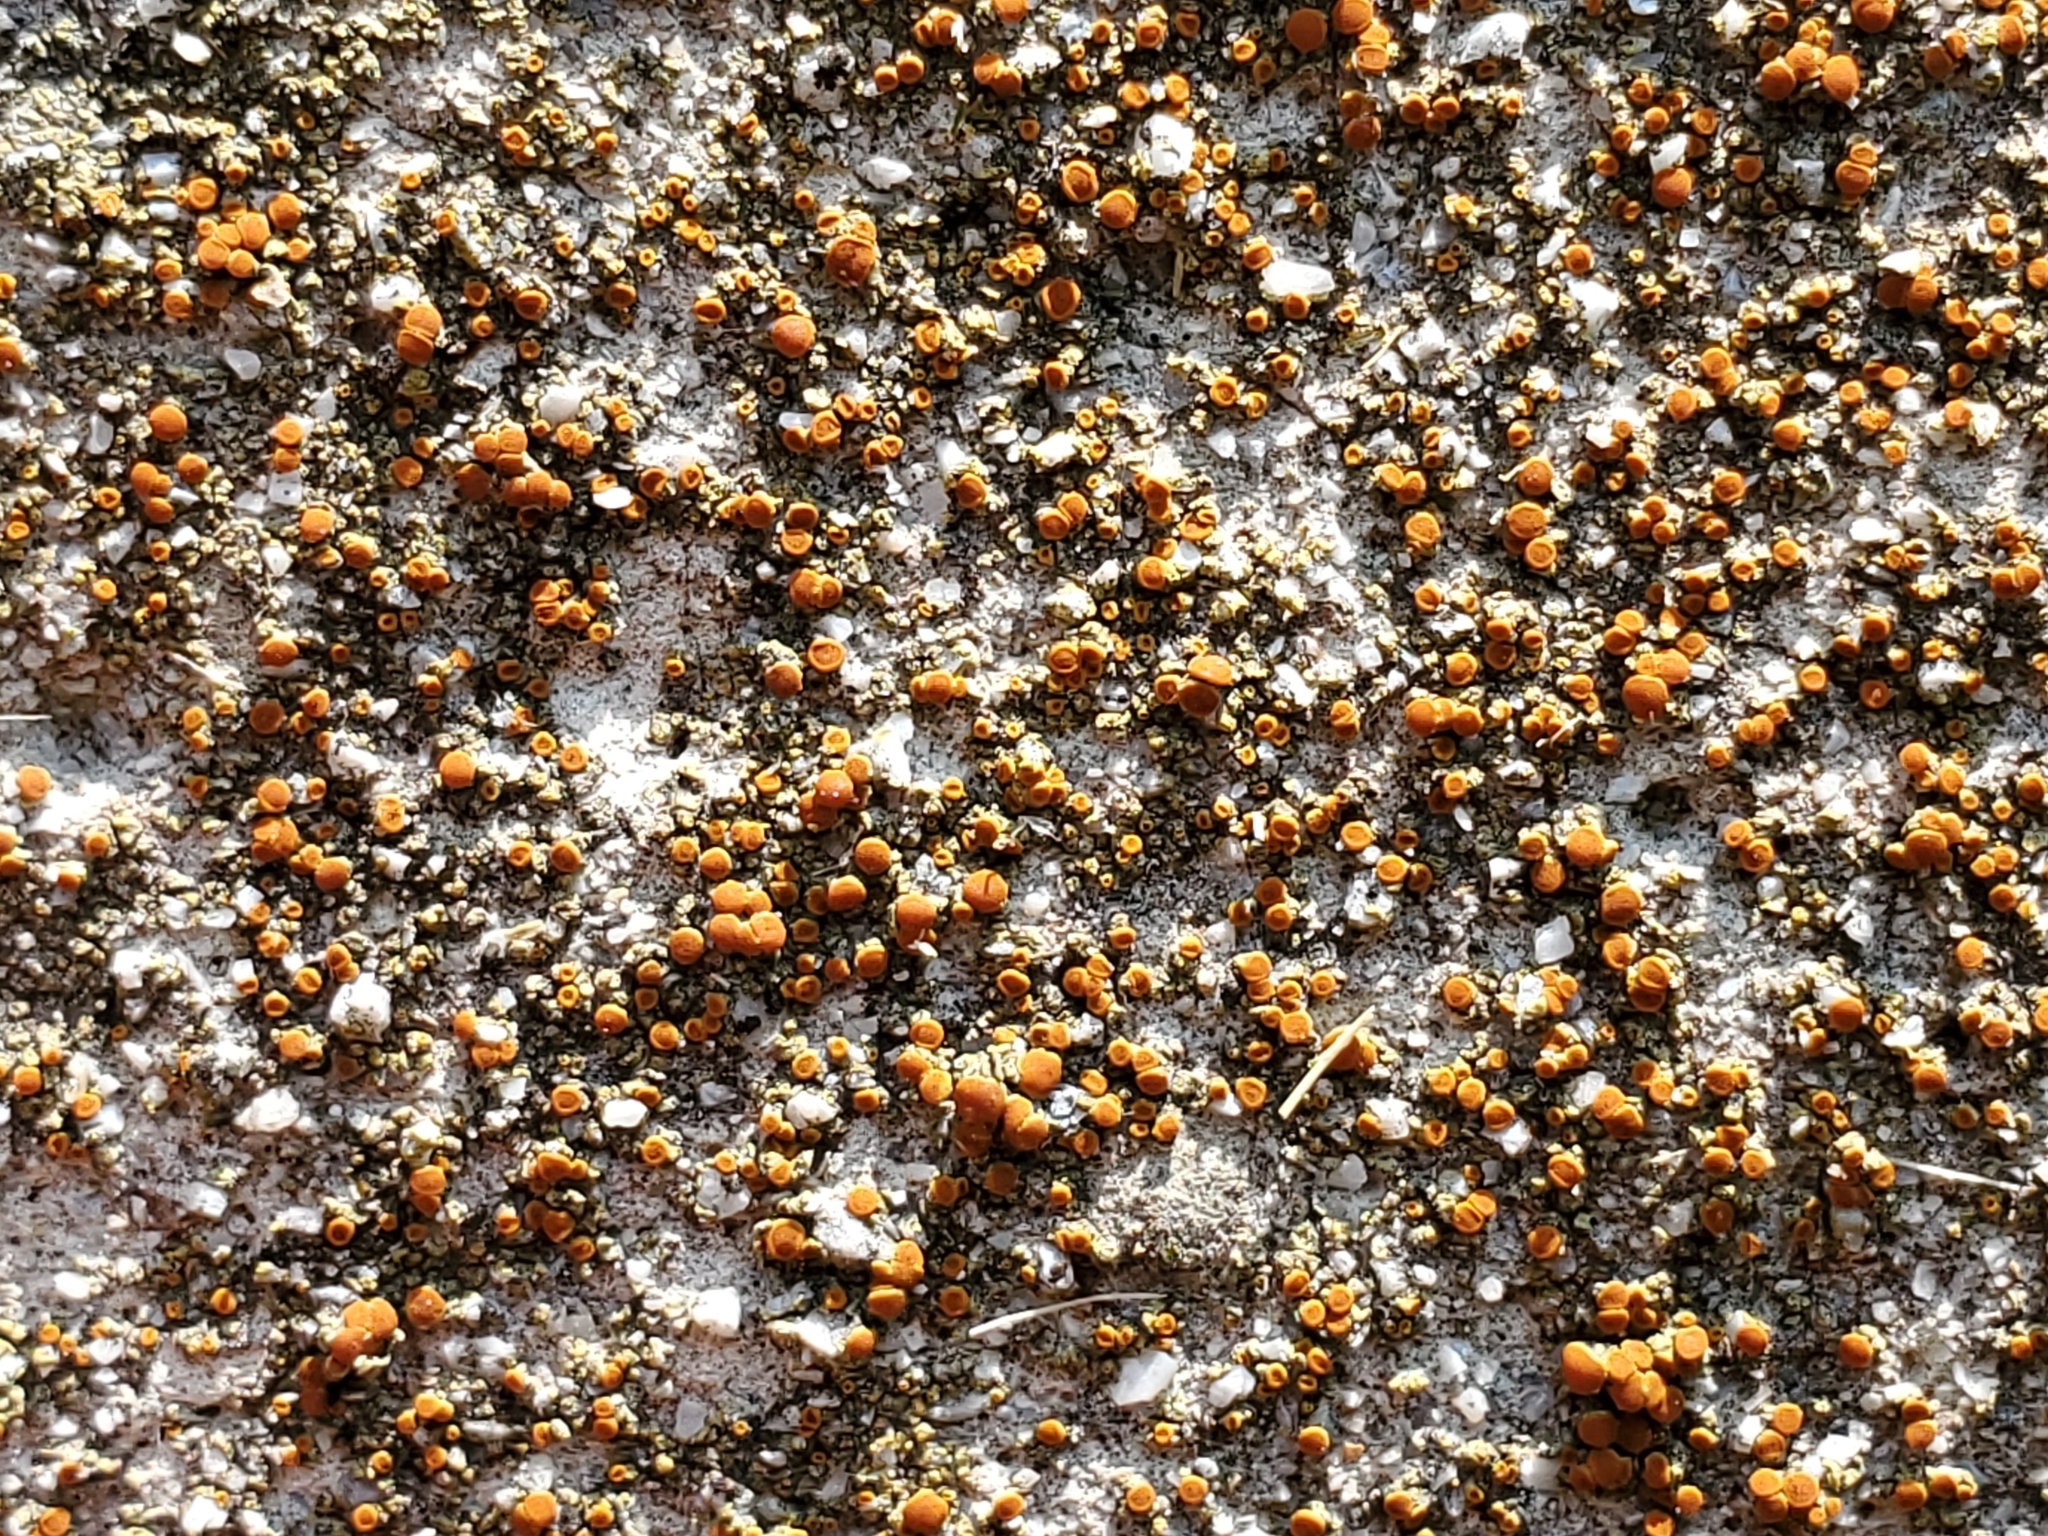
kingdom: Fungi
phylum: Ascomycota
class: Lecanoromycetes
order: Teloschistales
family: Teloschistaceae
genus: Xanthocarpia
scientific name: Xanthocarpia feracissima
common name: Sidewalk firedot
